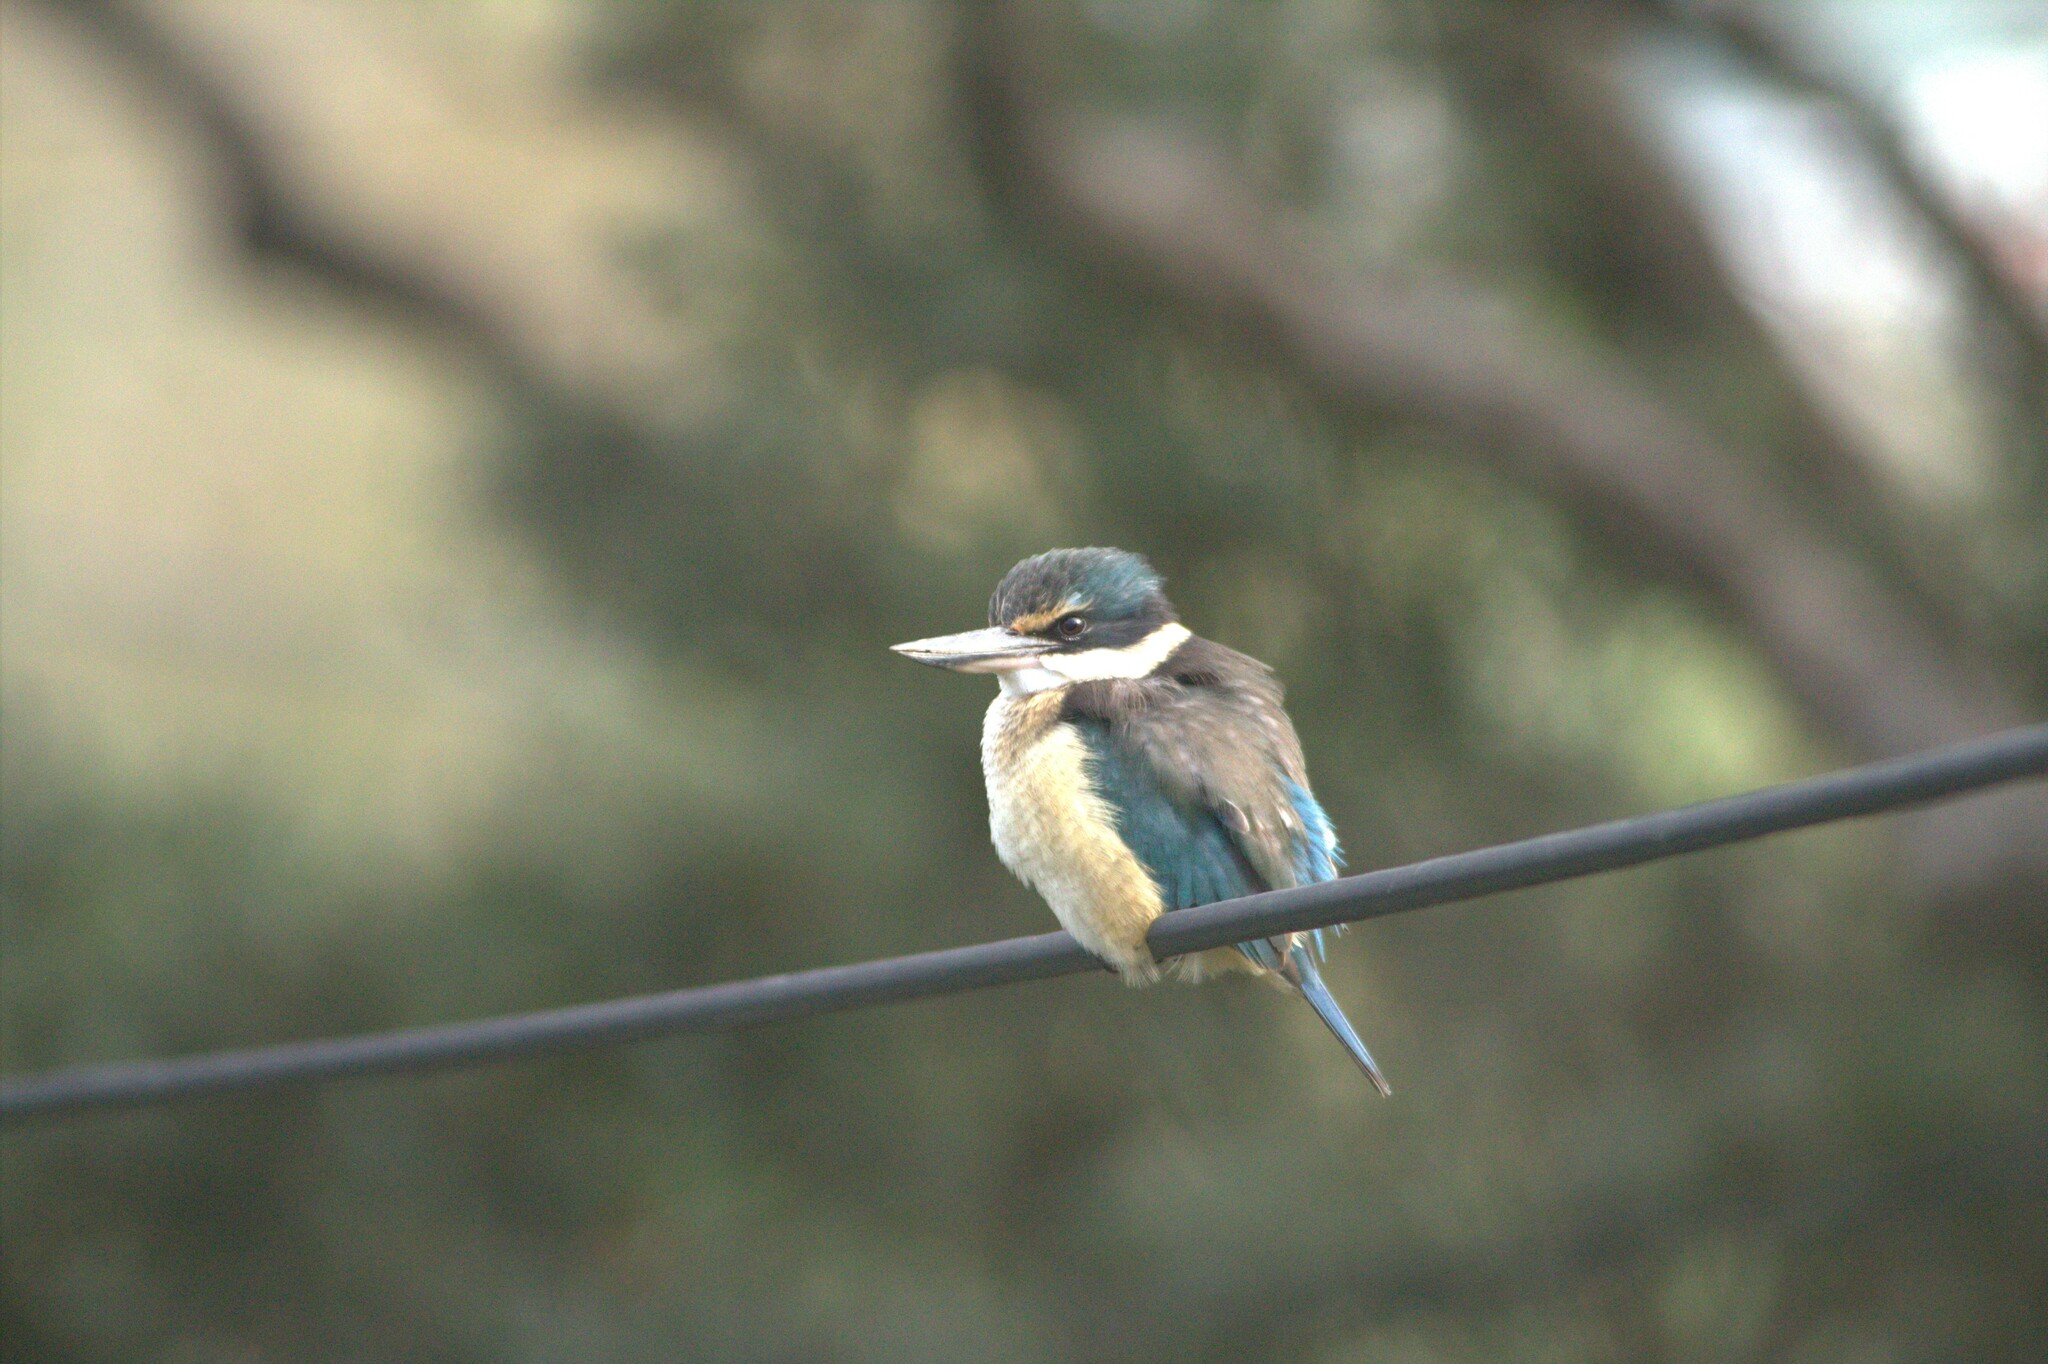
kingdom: Animalia
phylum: Chordata
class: Aves
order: Coraciiformes
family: Alcedinidae
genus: Todiramphus
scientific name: Todiramphus sanctus
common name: Sacred kingfisher
